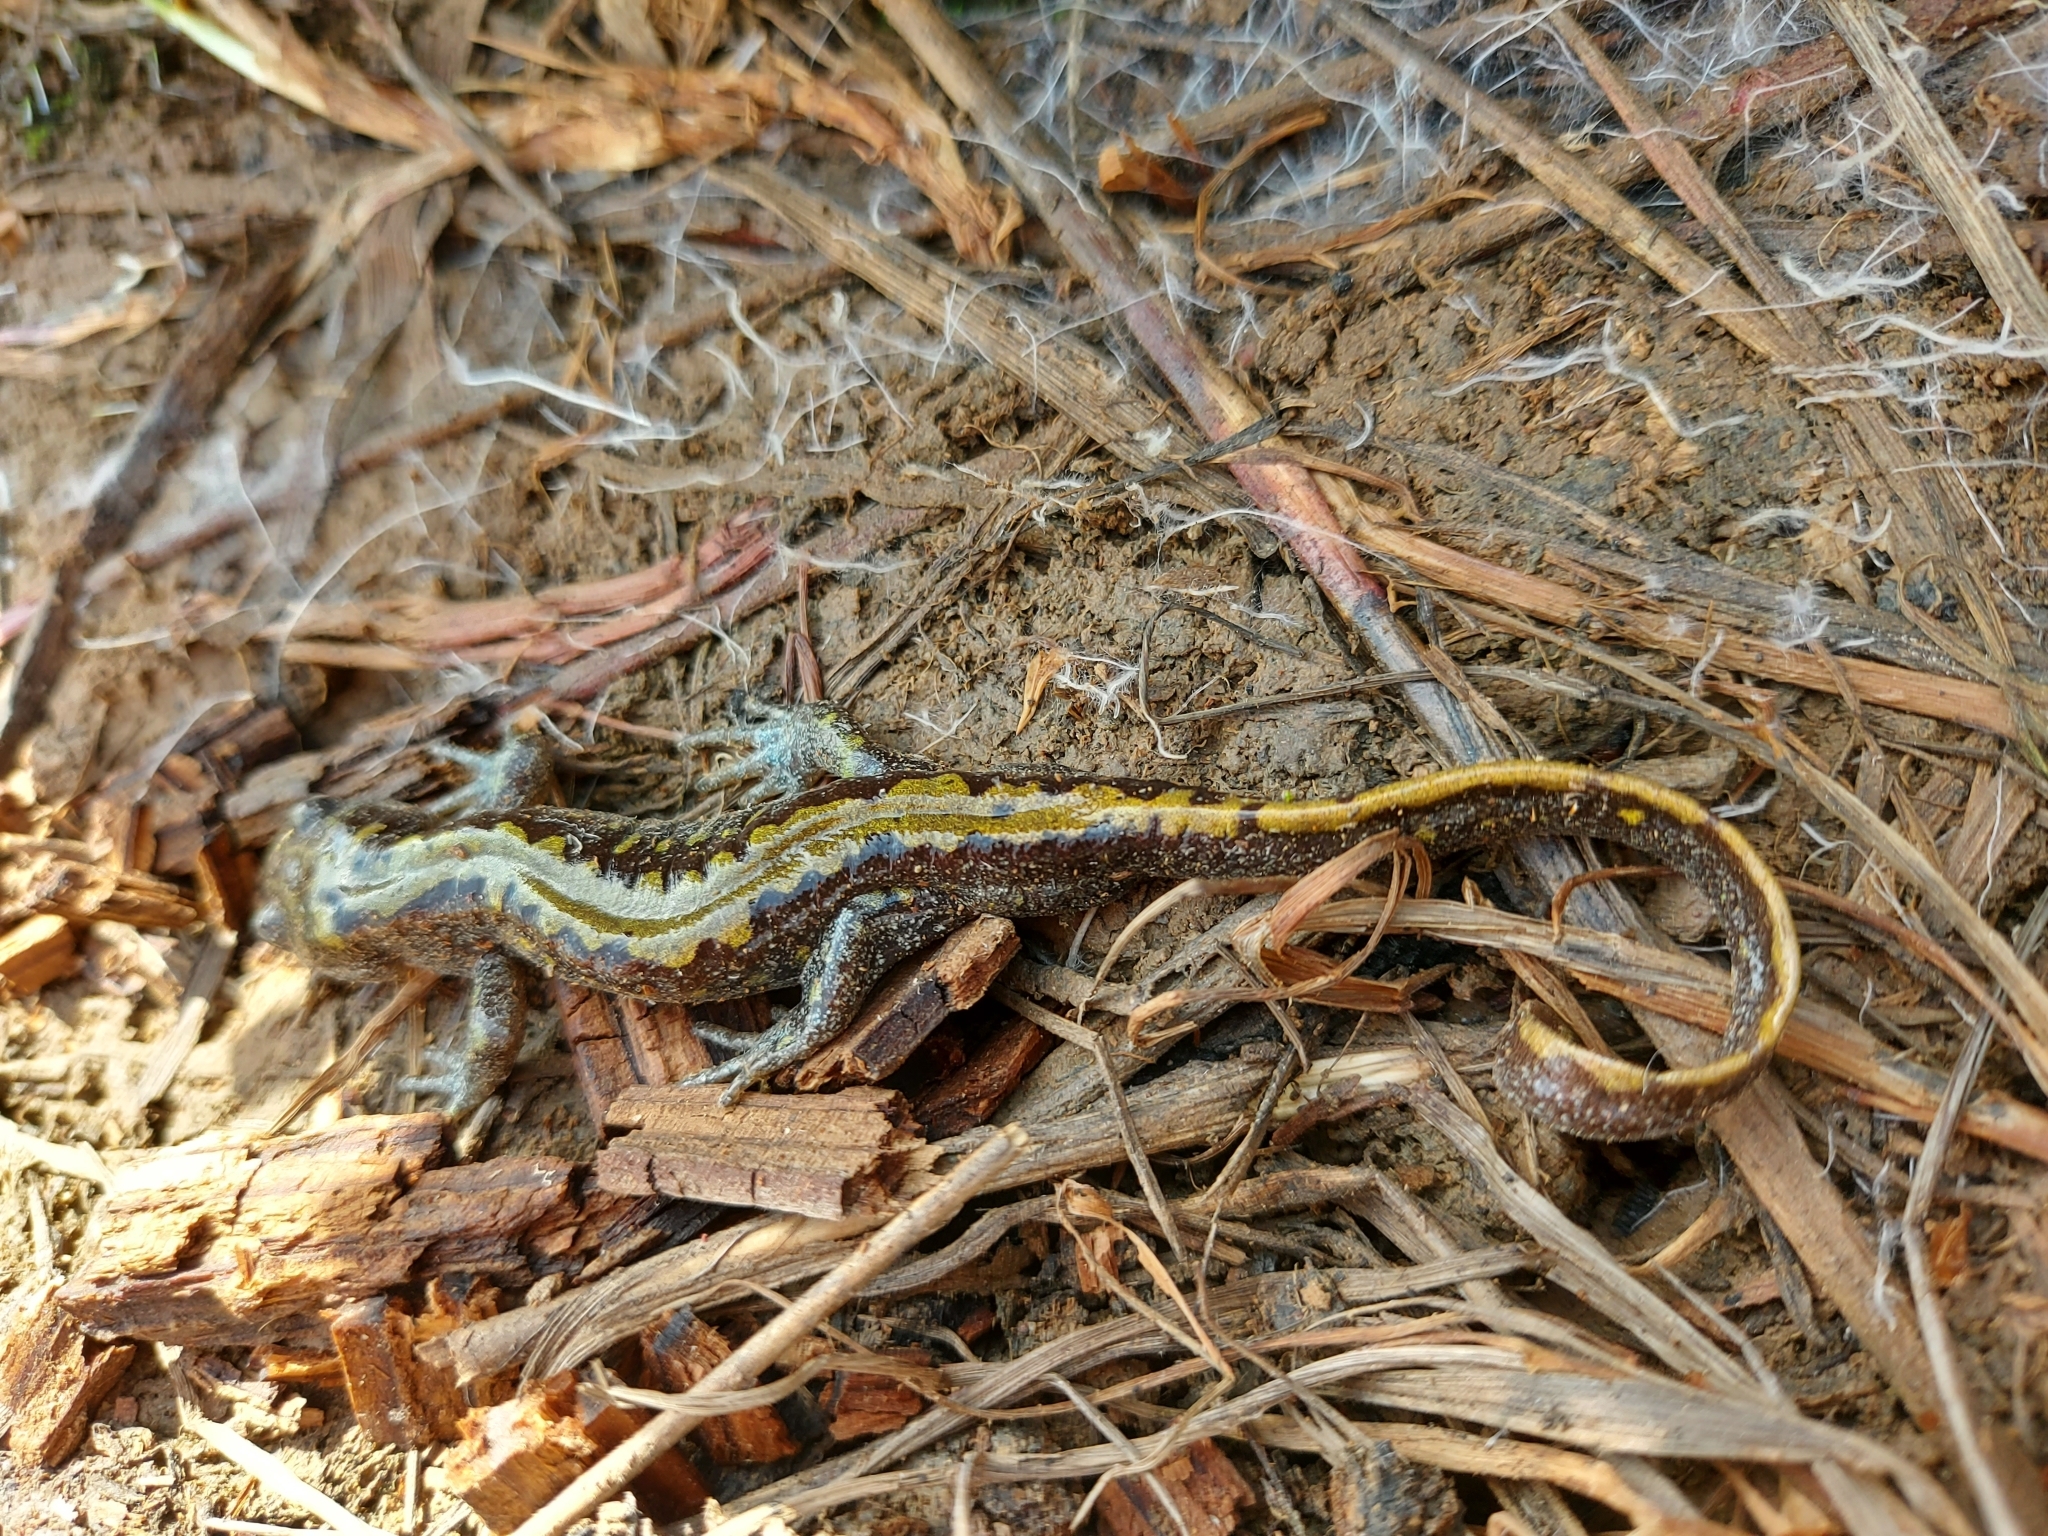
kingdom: Animalia
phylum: Chordata
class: Amphibia
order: Caudata
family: Ambystomatidae
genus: Ambystoma
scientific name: Ambystoma macrodactylum
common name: Long-toed salamander
